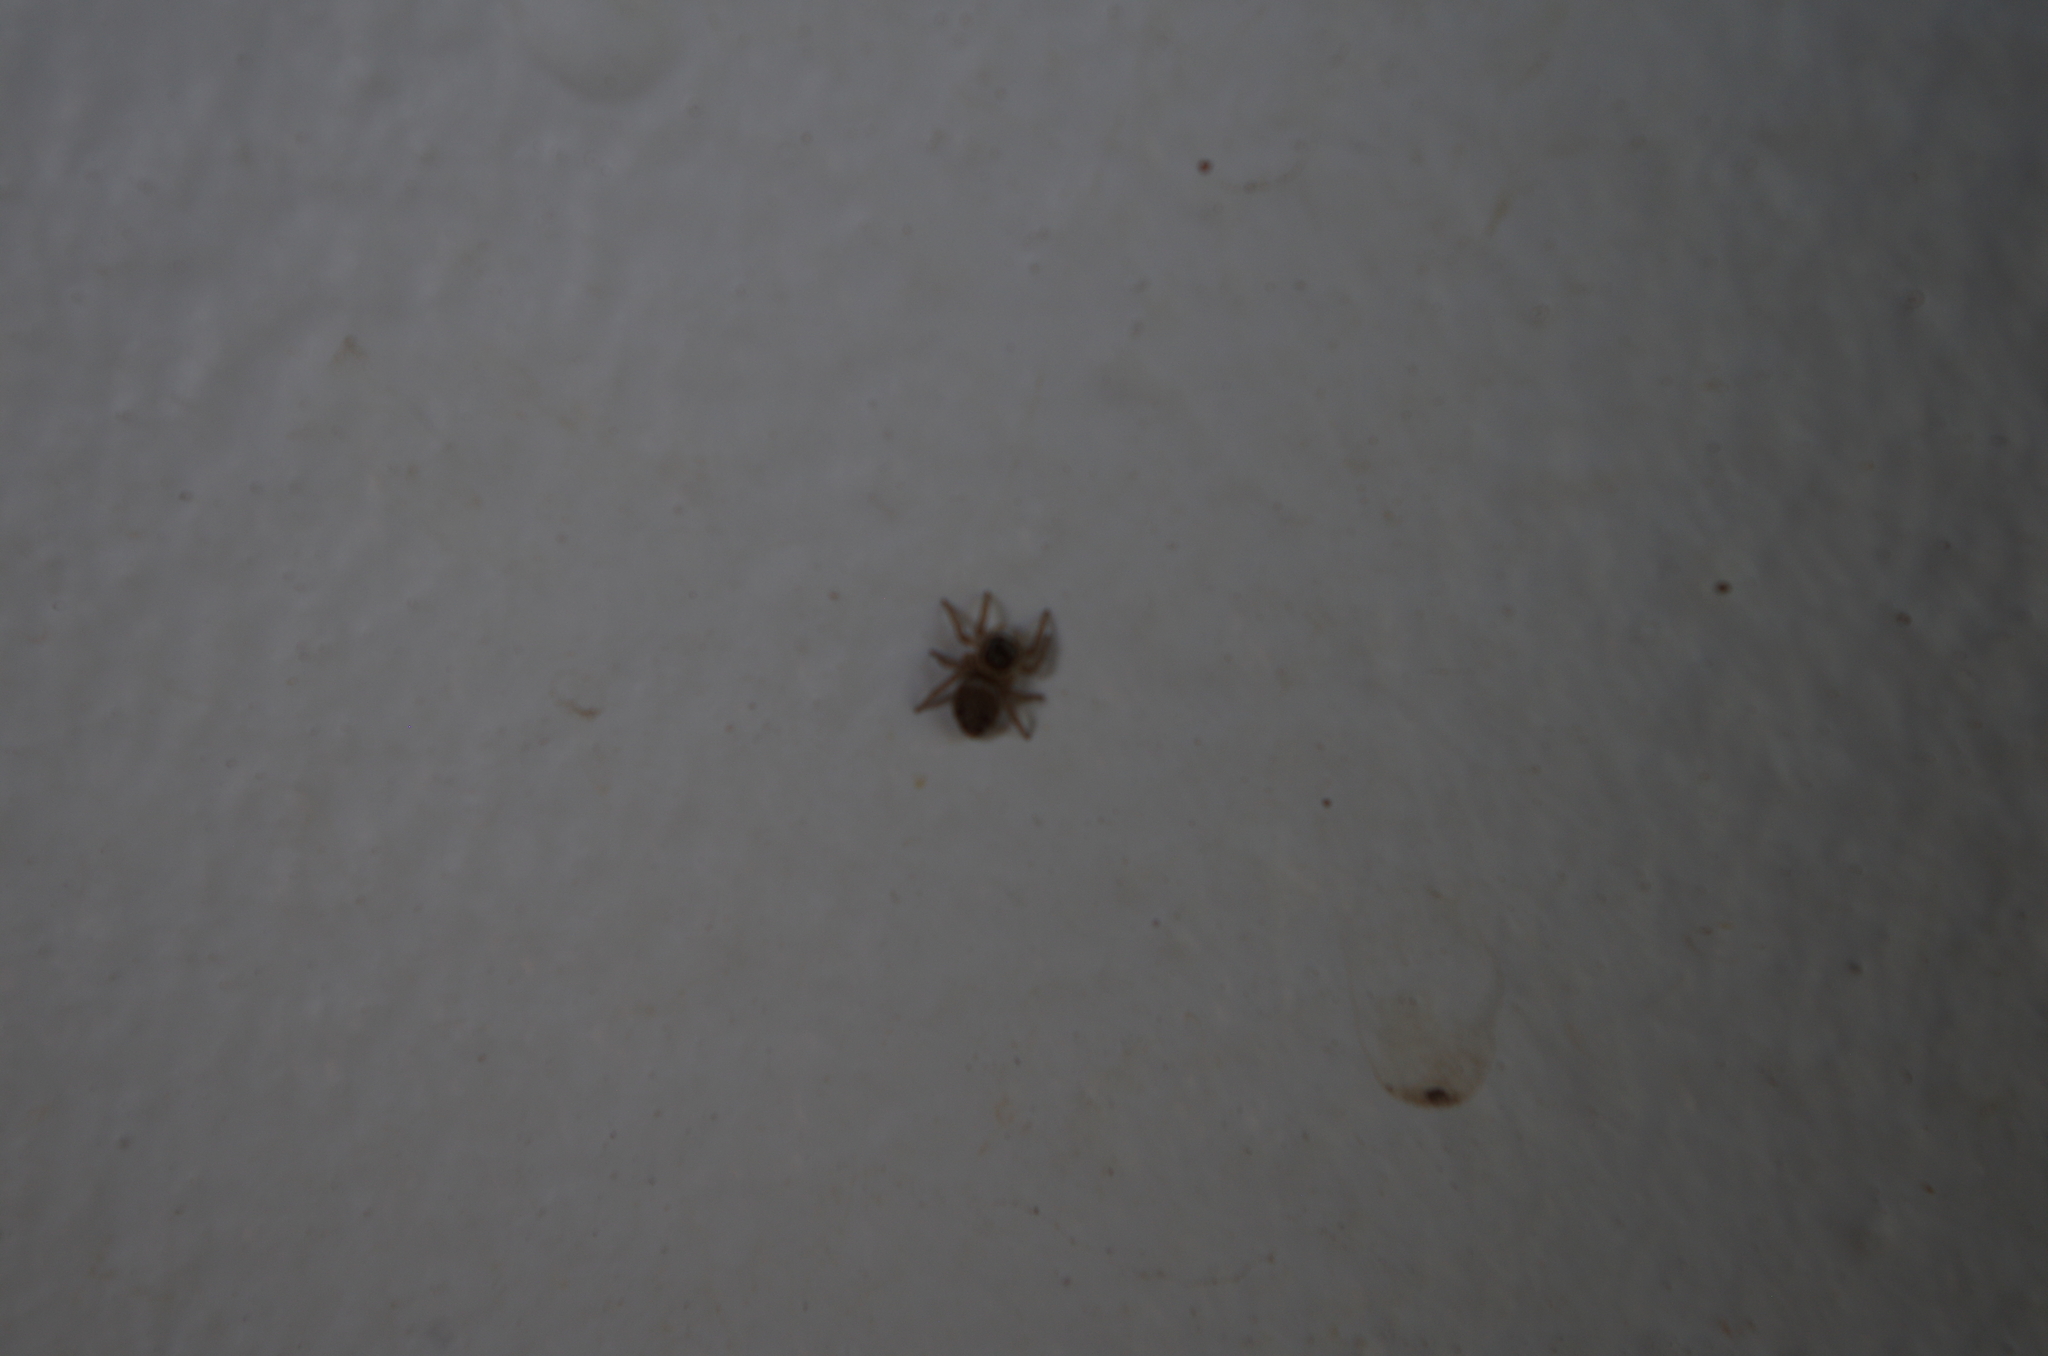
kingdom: Animalia
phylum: Arthropoda
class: Arachnida
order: Araneae
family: Salticidae
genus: Maratus
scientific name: Maratus griseus
